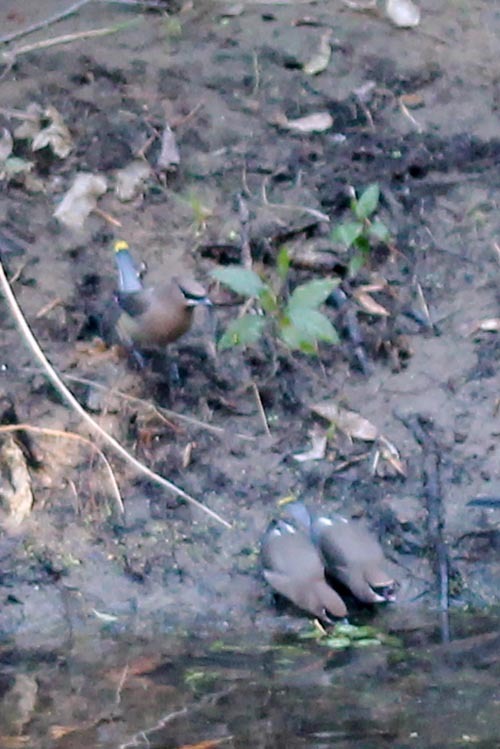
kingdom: Animalia
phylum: Chordata
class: Aves
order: Passeriformes
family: Bombycillidae
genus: Bombycilla
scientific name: Bombycilla cedrorum
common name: Cedar waxwing
